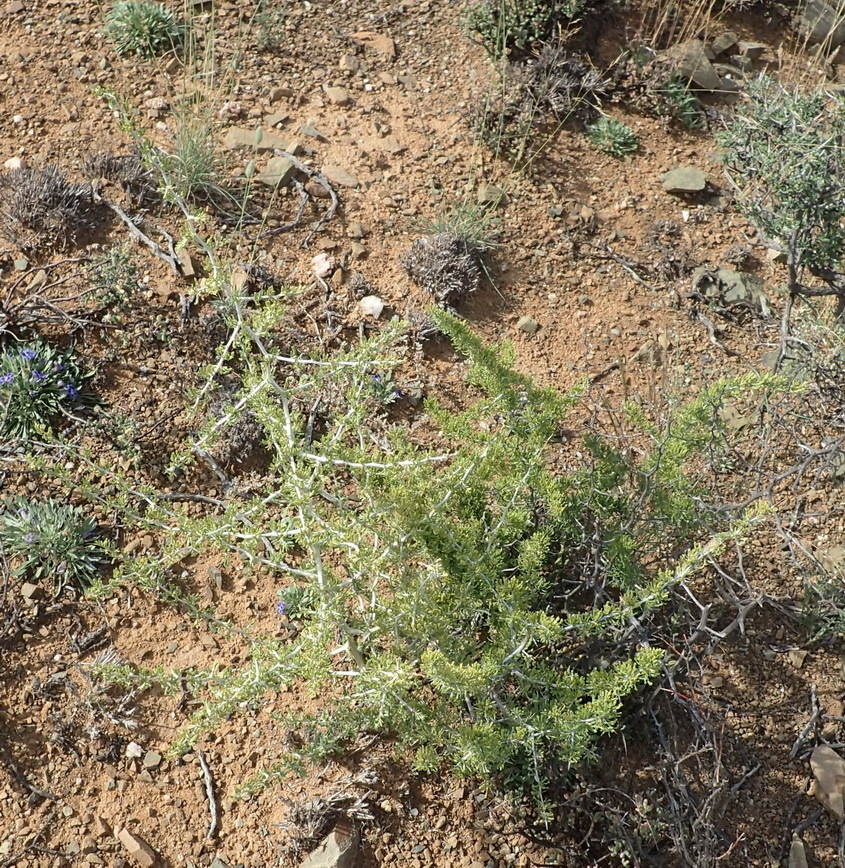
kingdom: Plantae
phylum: Tracheophyta
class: Liliopsida
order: Asparagales
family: Asparagaceae
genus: Asparagus
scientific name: Asparagus burchellii
